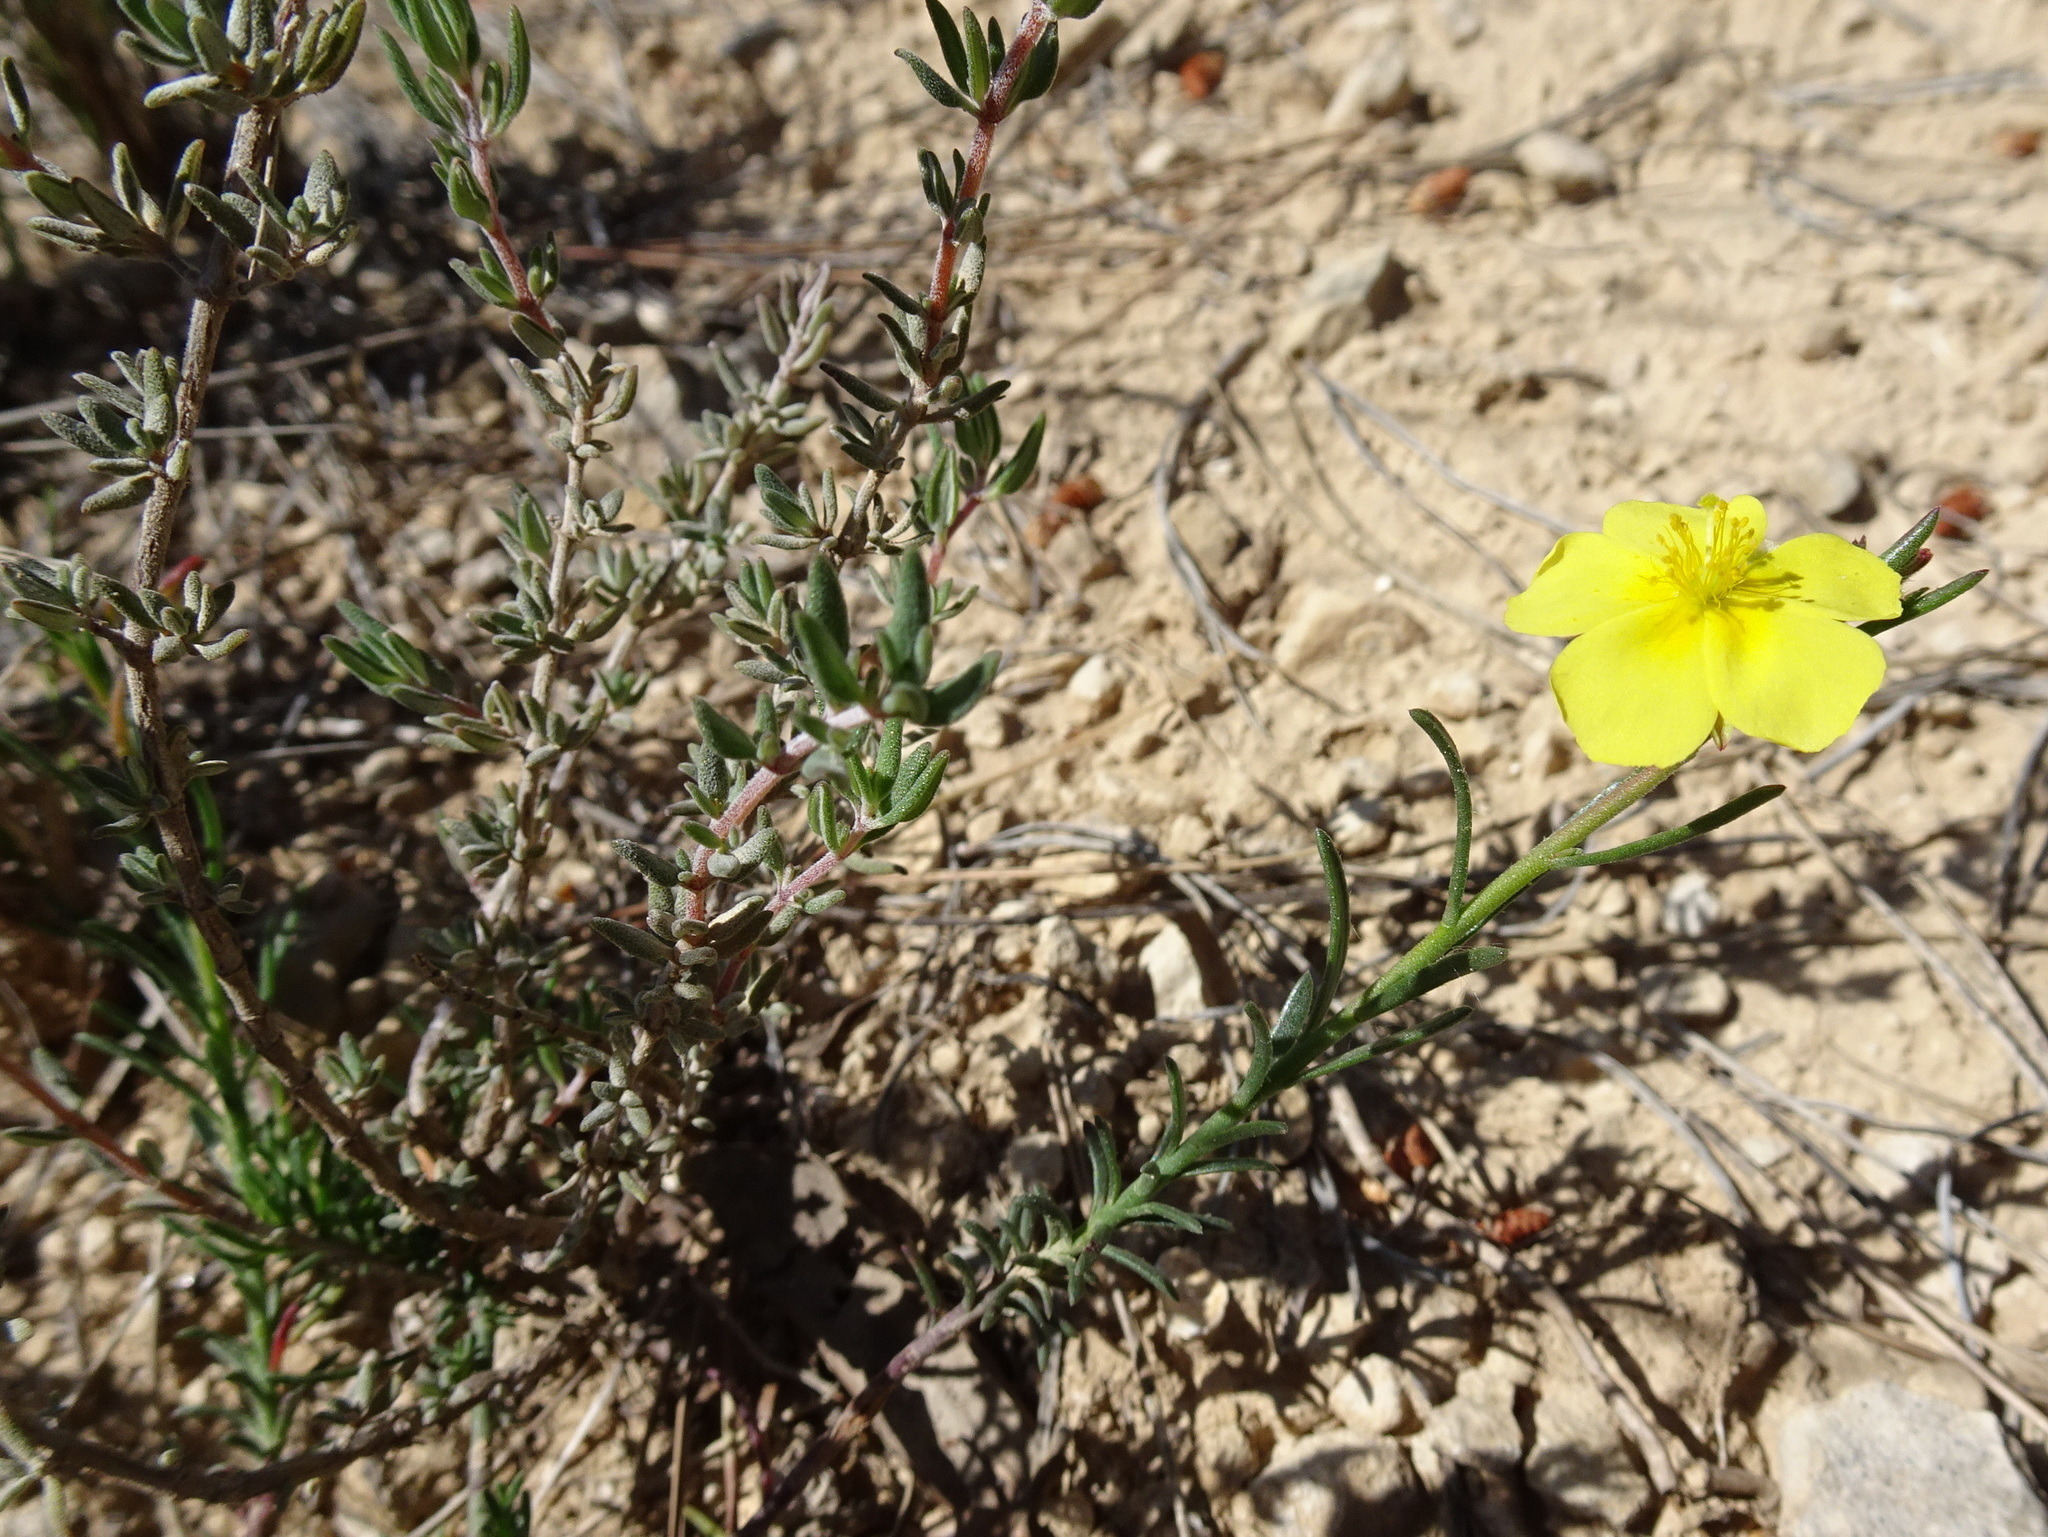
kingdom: Plantae
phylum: Tracheophyta
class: Magnoliopsida
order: Malvales
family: Cistaceae
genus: Helianthemum
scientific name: Helianthemum nummularium
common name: Common rock-rose
